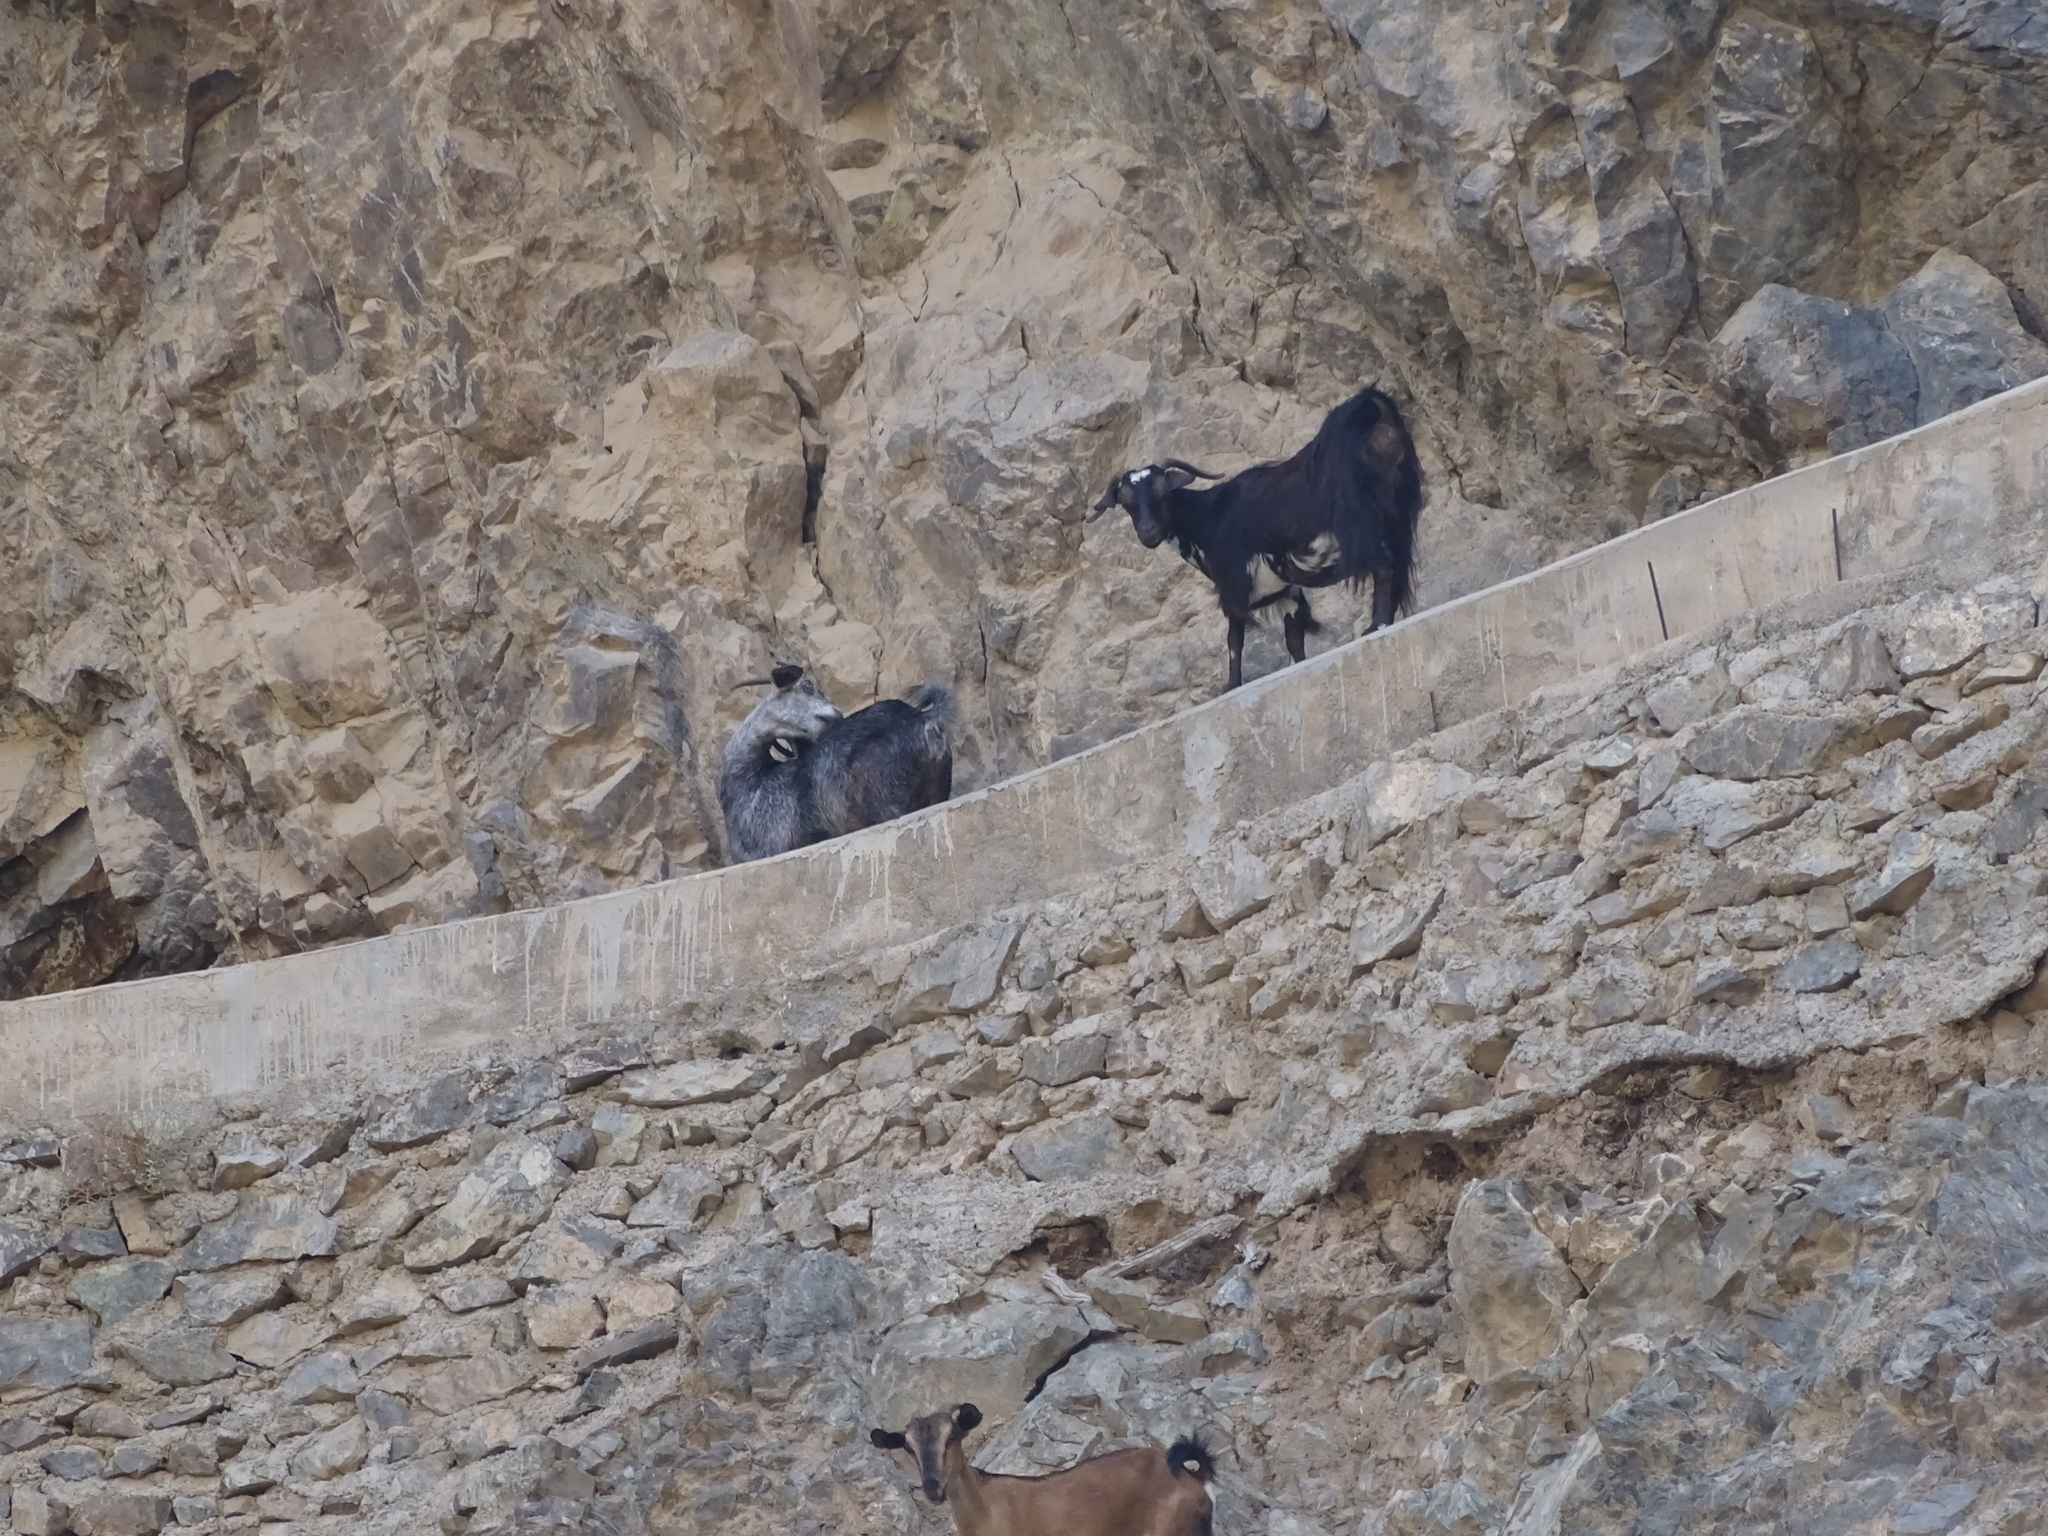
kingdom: Animalia
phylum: Chordata
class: Mammalia
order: Artiodactyla
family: Bovidae
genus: Capra
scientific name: Capra hircus
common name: Domestic goat
